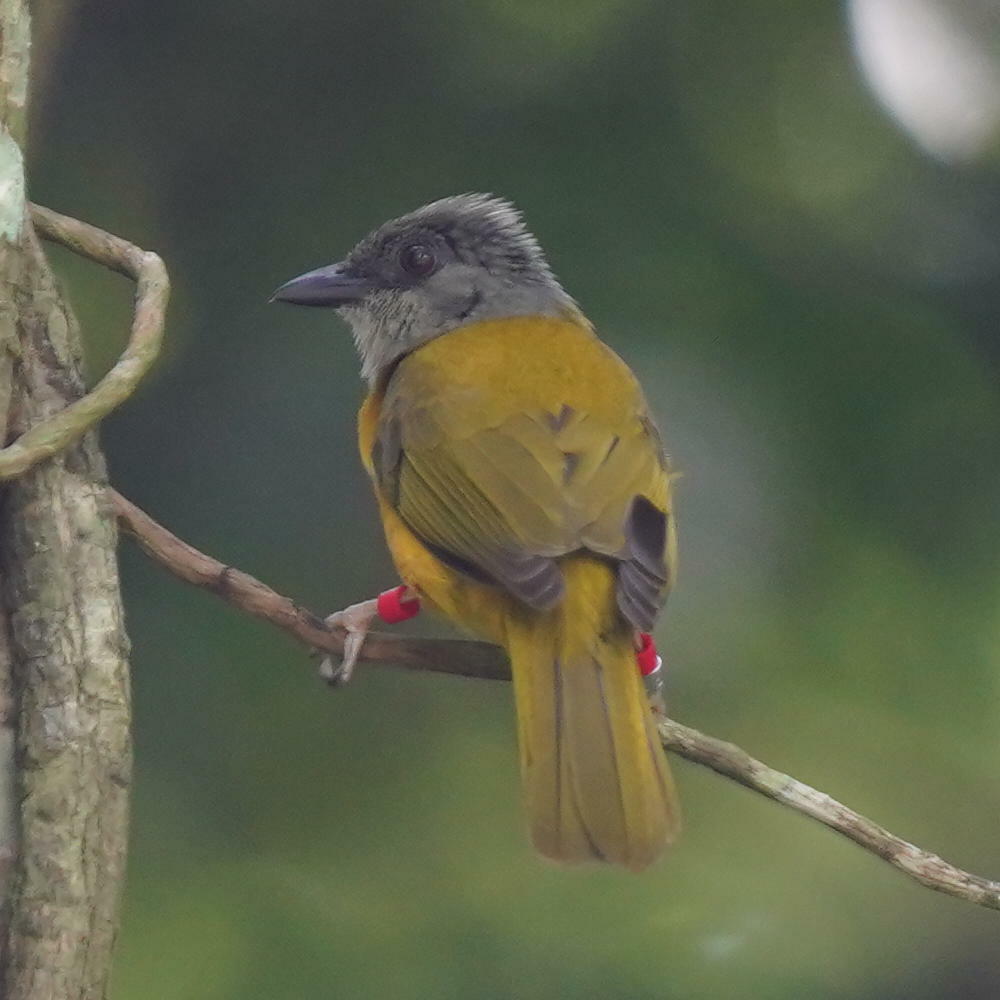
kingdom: Animalia
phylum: Chordata
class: Aves
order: Passeriformes
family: Thraupidae
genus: Eucometis
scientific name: Eucometis penicillata
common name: Grey-headed tanager
